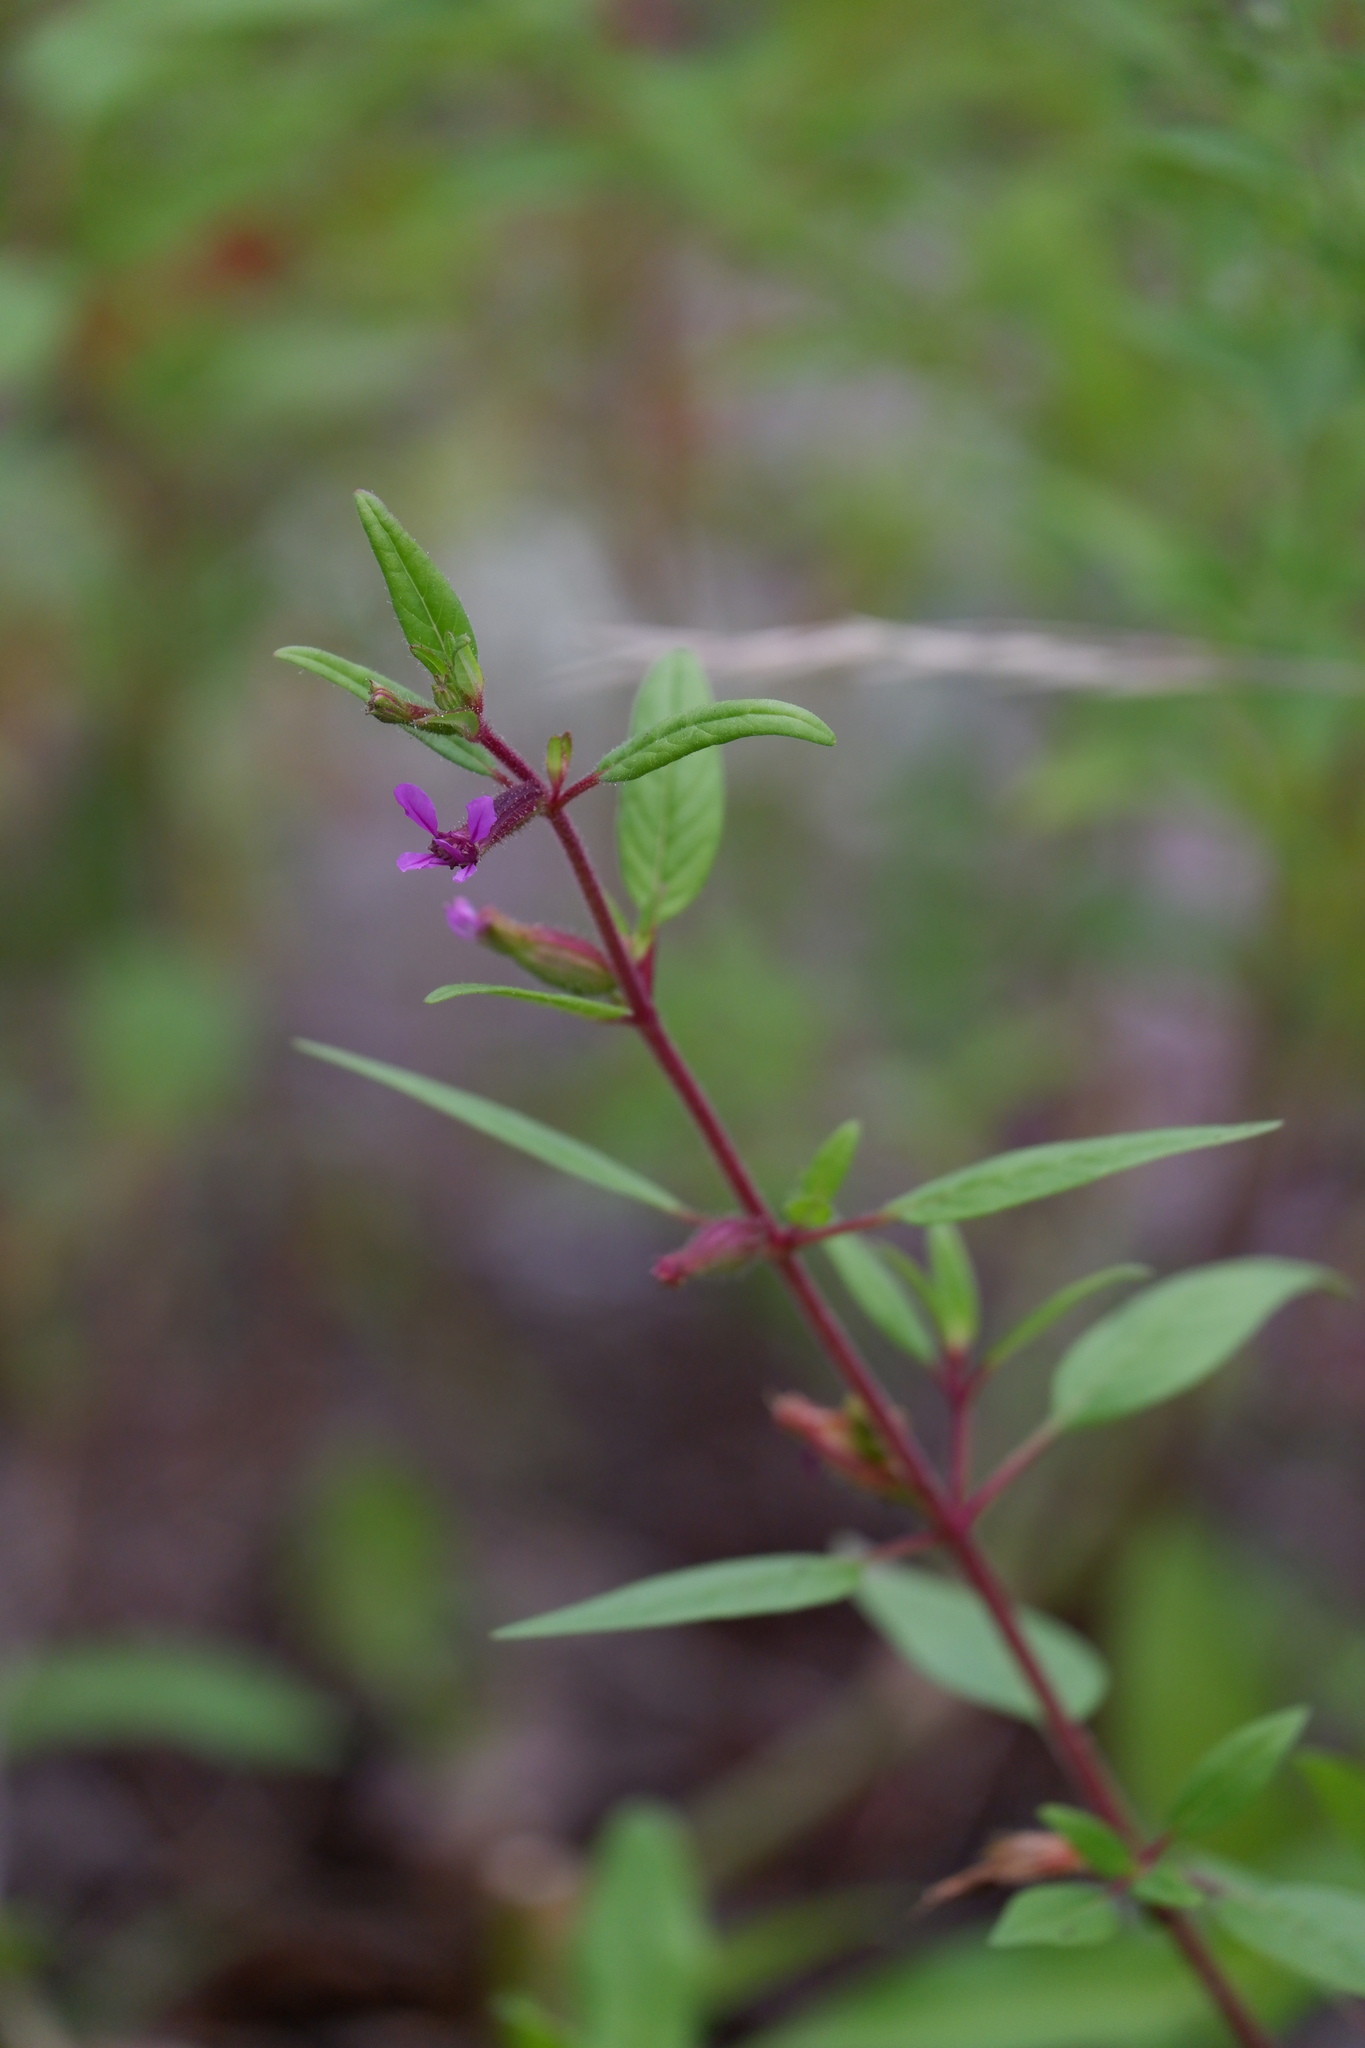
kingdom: Plantae
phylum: Tracheophyta
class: Magnoliopsida
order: Myrtales
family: Lythraceae
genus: Cuphea
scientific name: Cuphea viscosissima
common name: Clammy cuphea
